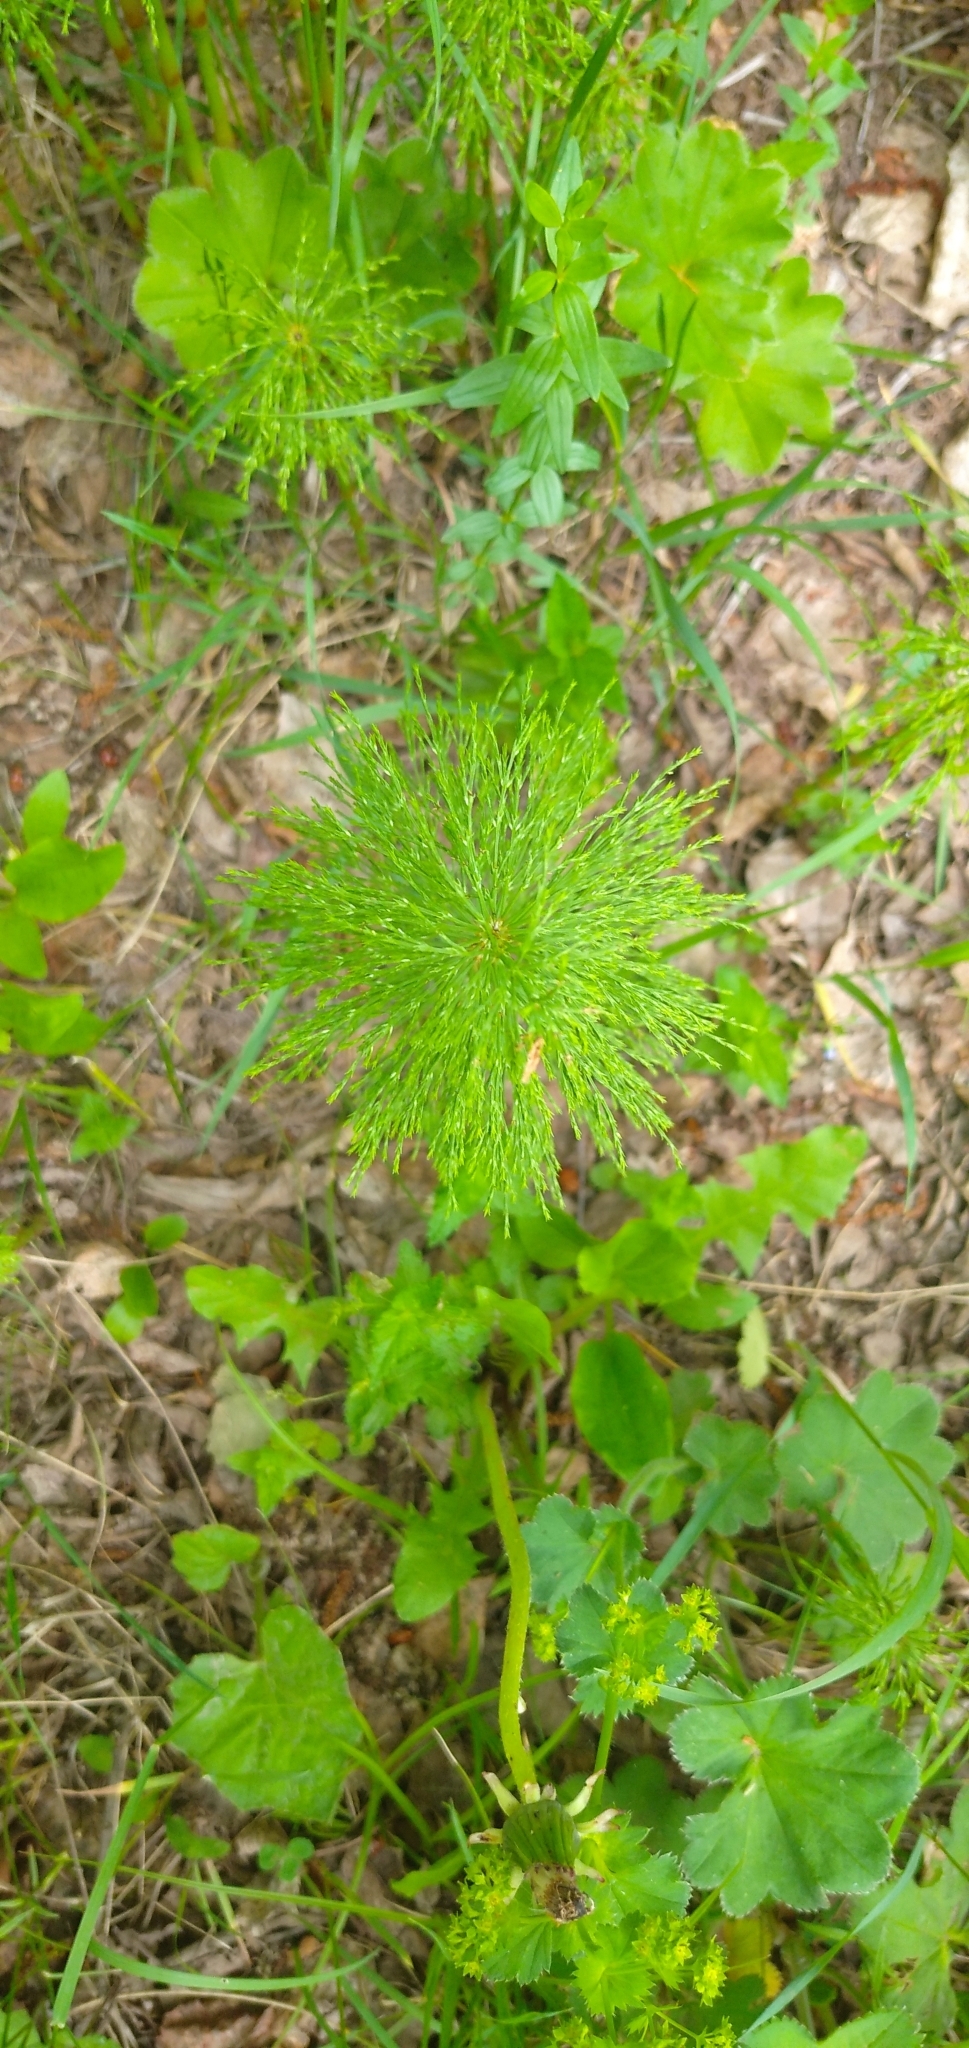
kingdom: Plantae
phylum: Tracheophyta
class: Polypodiopsida
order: Equisetales
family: Equisetaceae
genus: Equisetum
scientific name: Equisetum sylvaticum
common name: Wood horsetail
